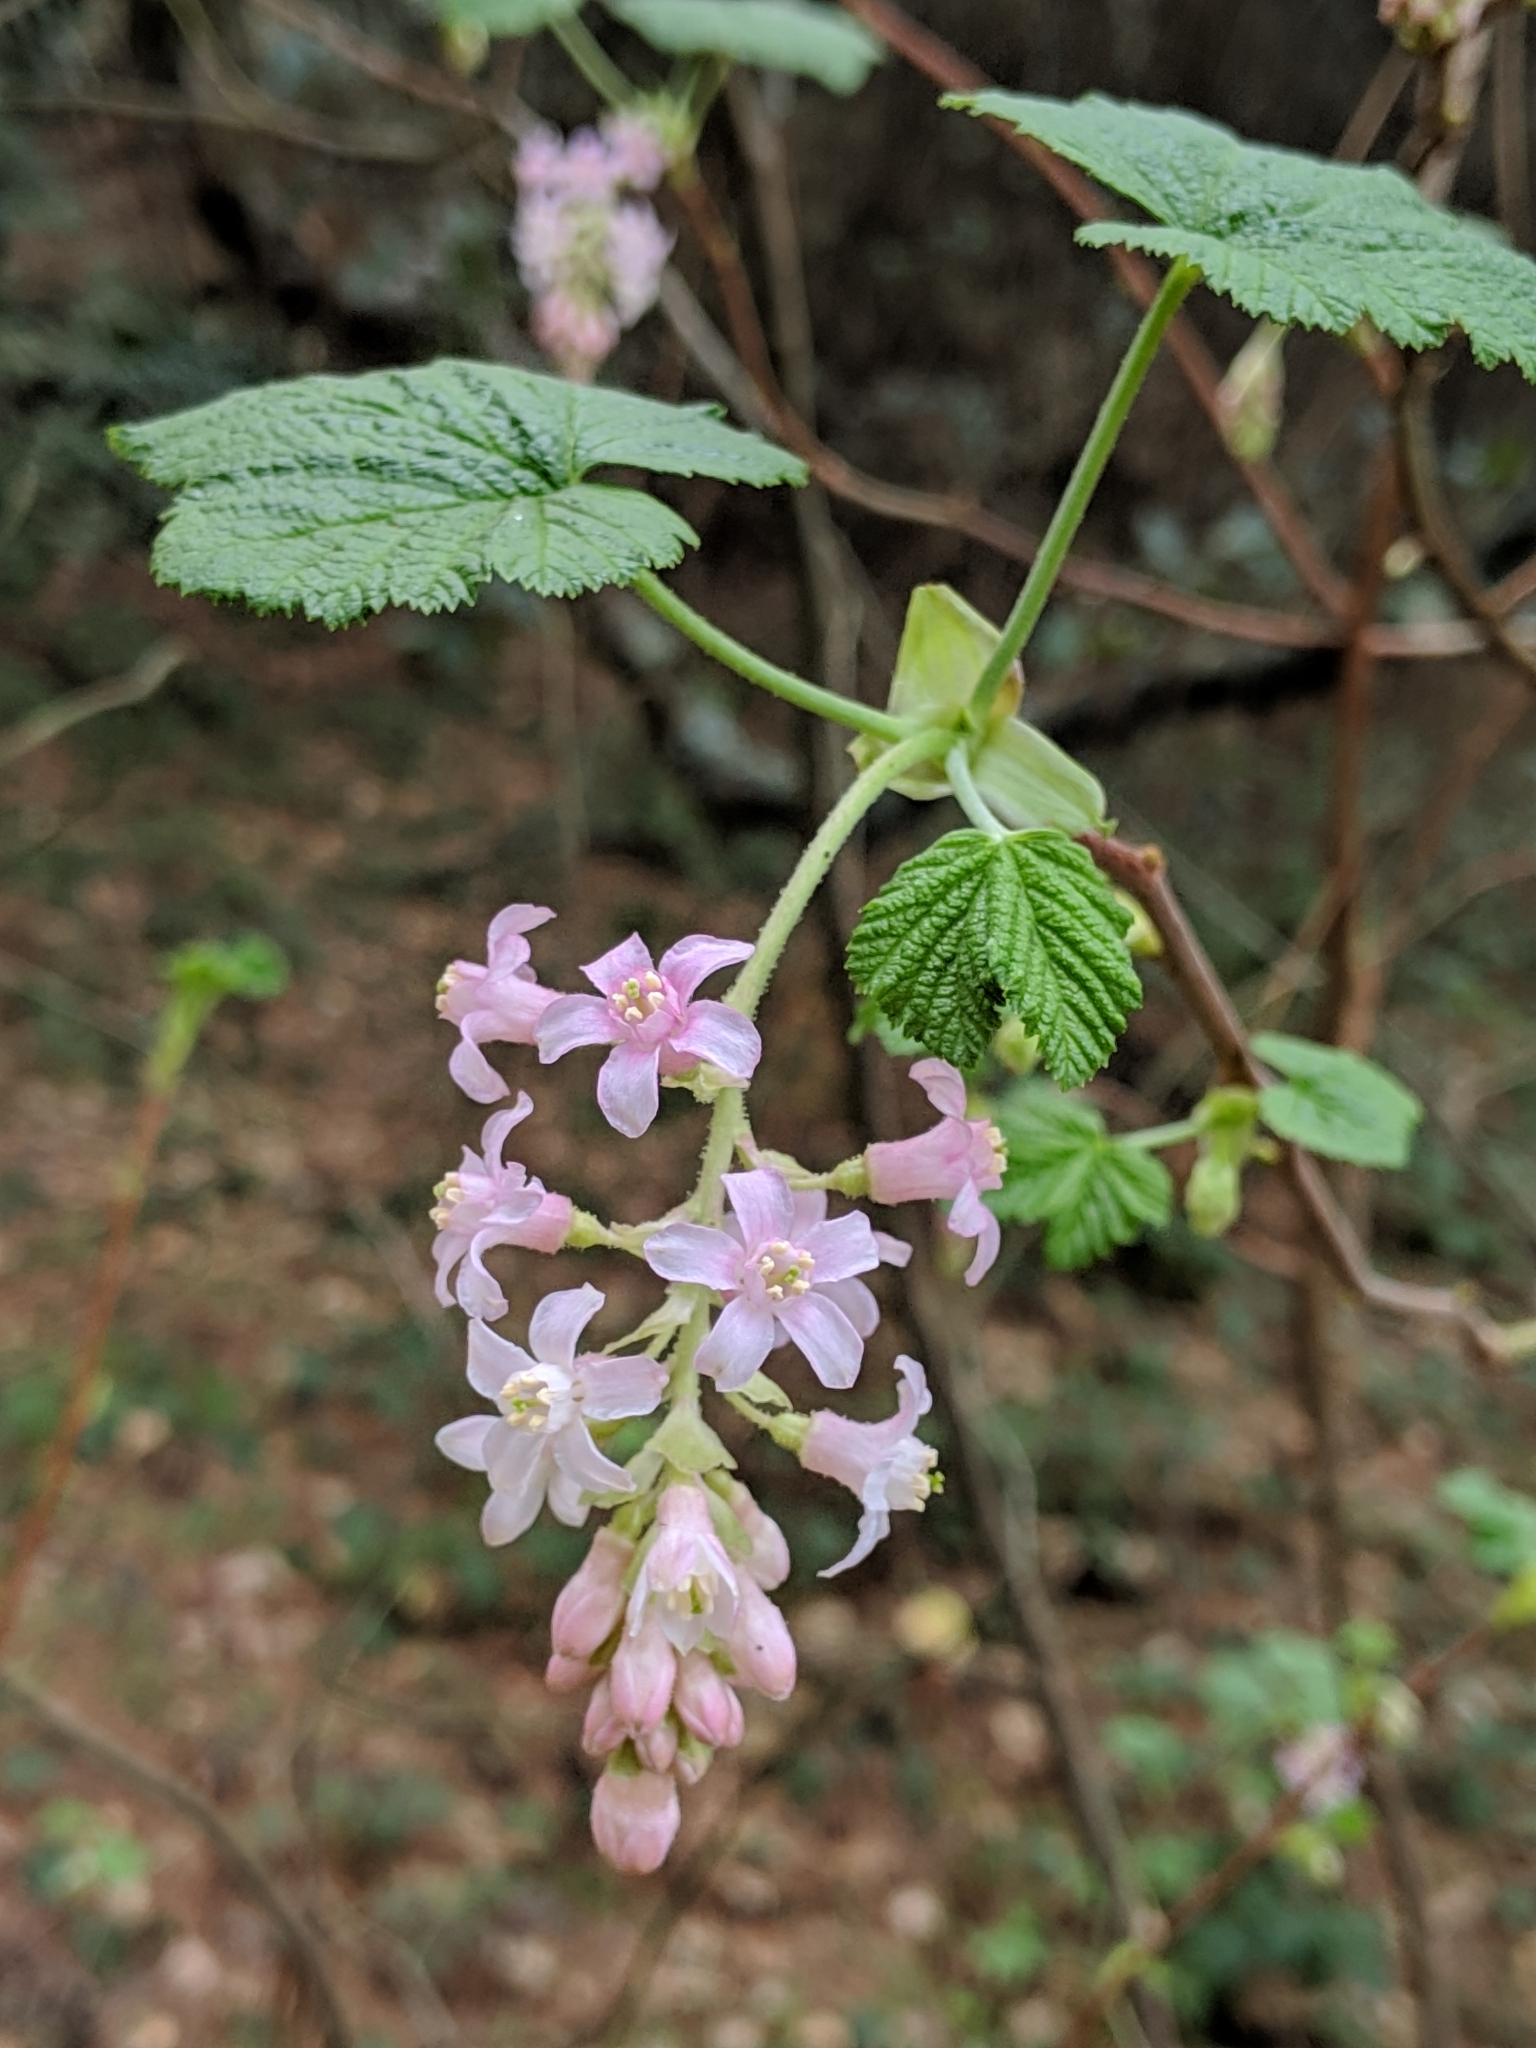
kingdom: Plantae
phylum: Tracheophyta
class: Magnoliopsida
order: Saxifragales
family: Grossulariaceae
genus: Ribes
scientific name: Ribes sanguineum
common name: Flowering currant
